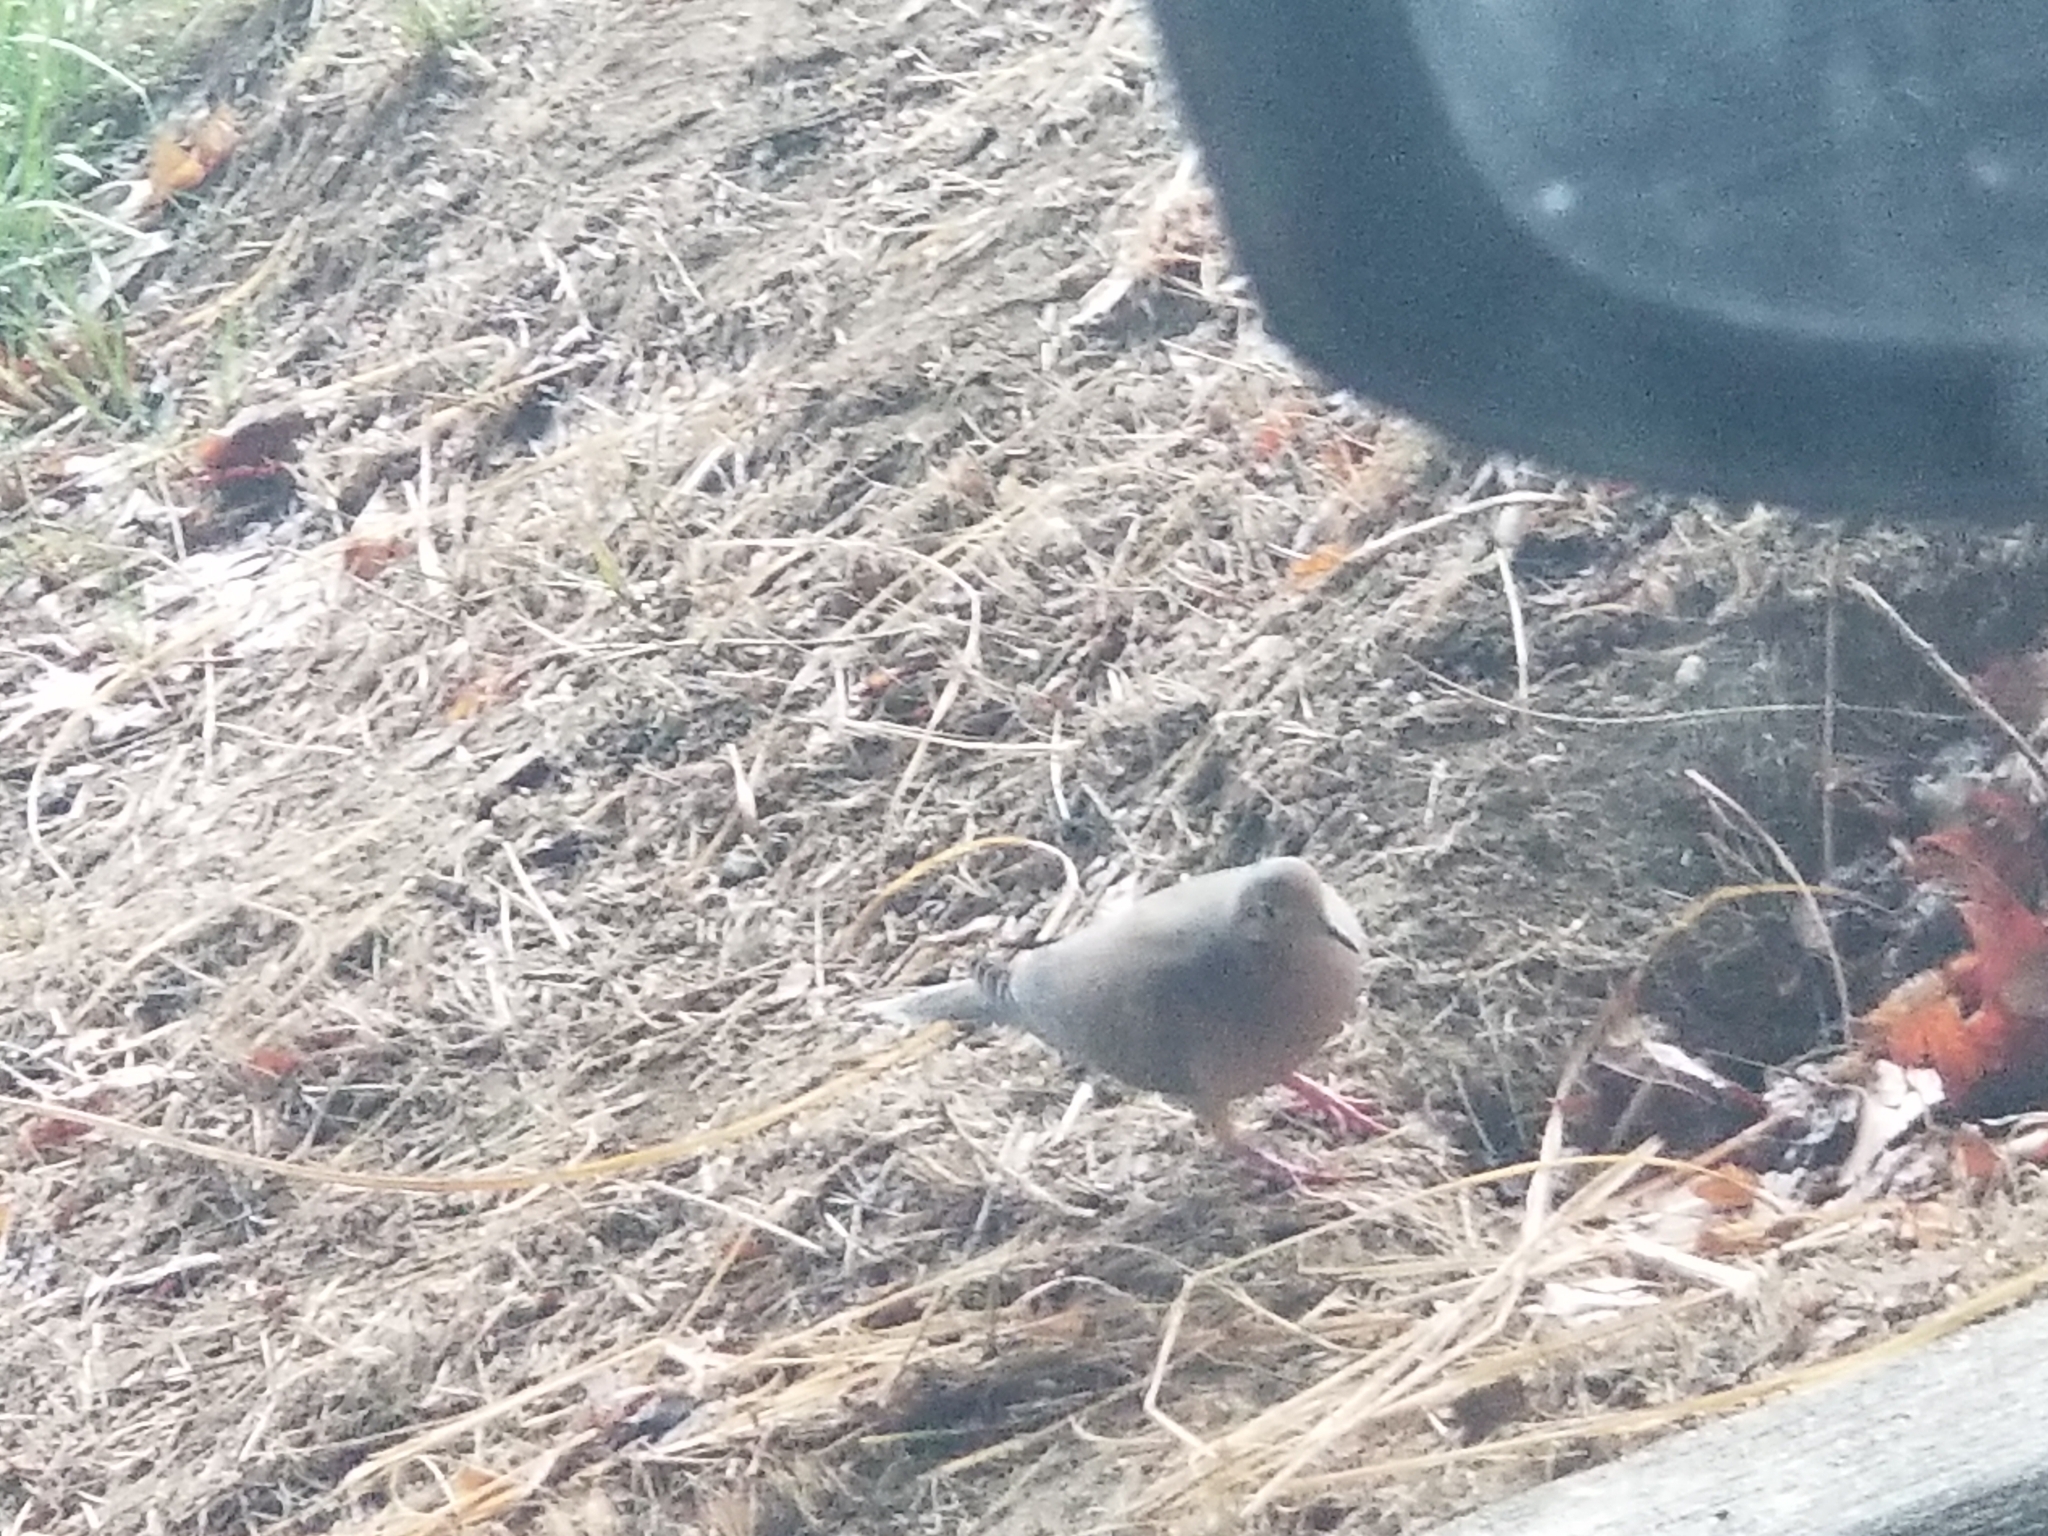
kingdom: Animalia
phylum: Chordata
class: Aves
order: Columbiformes
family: Columbidae
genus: Zenaida
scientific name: Zenaida macroura
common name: Mourning dove
